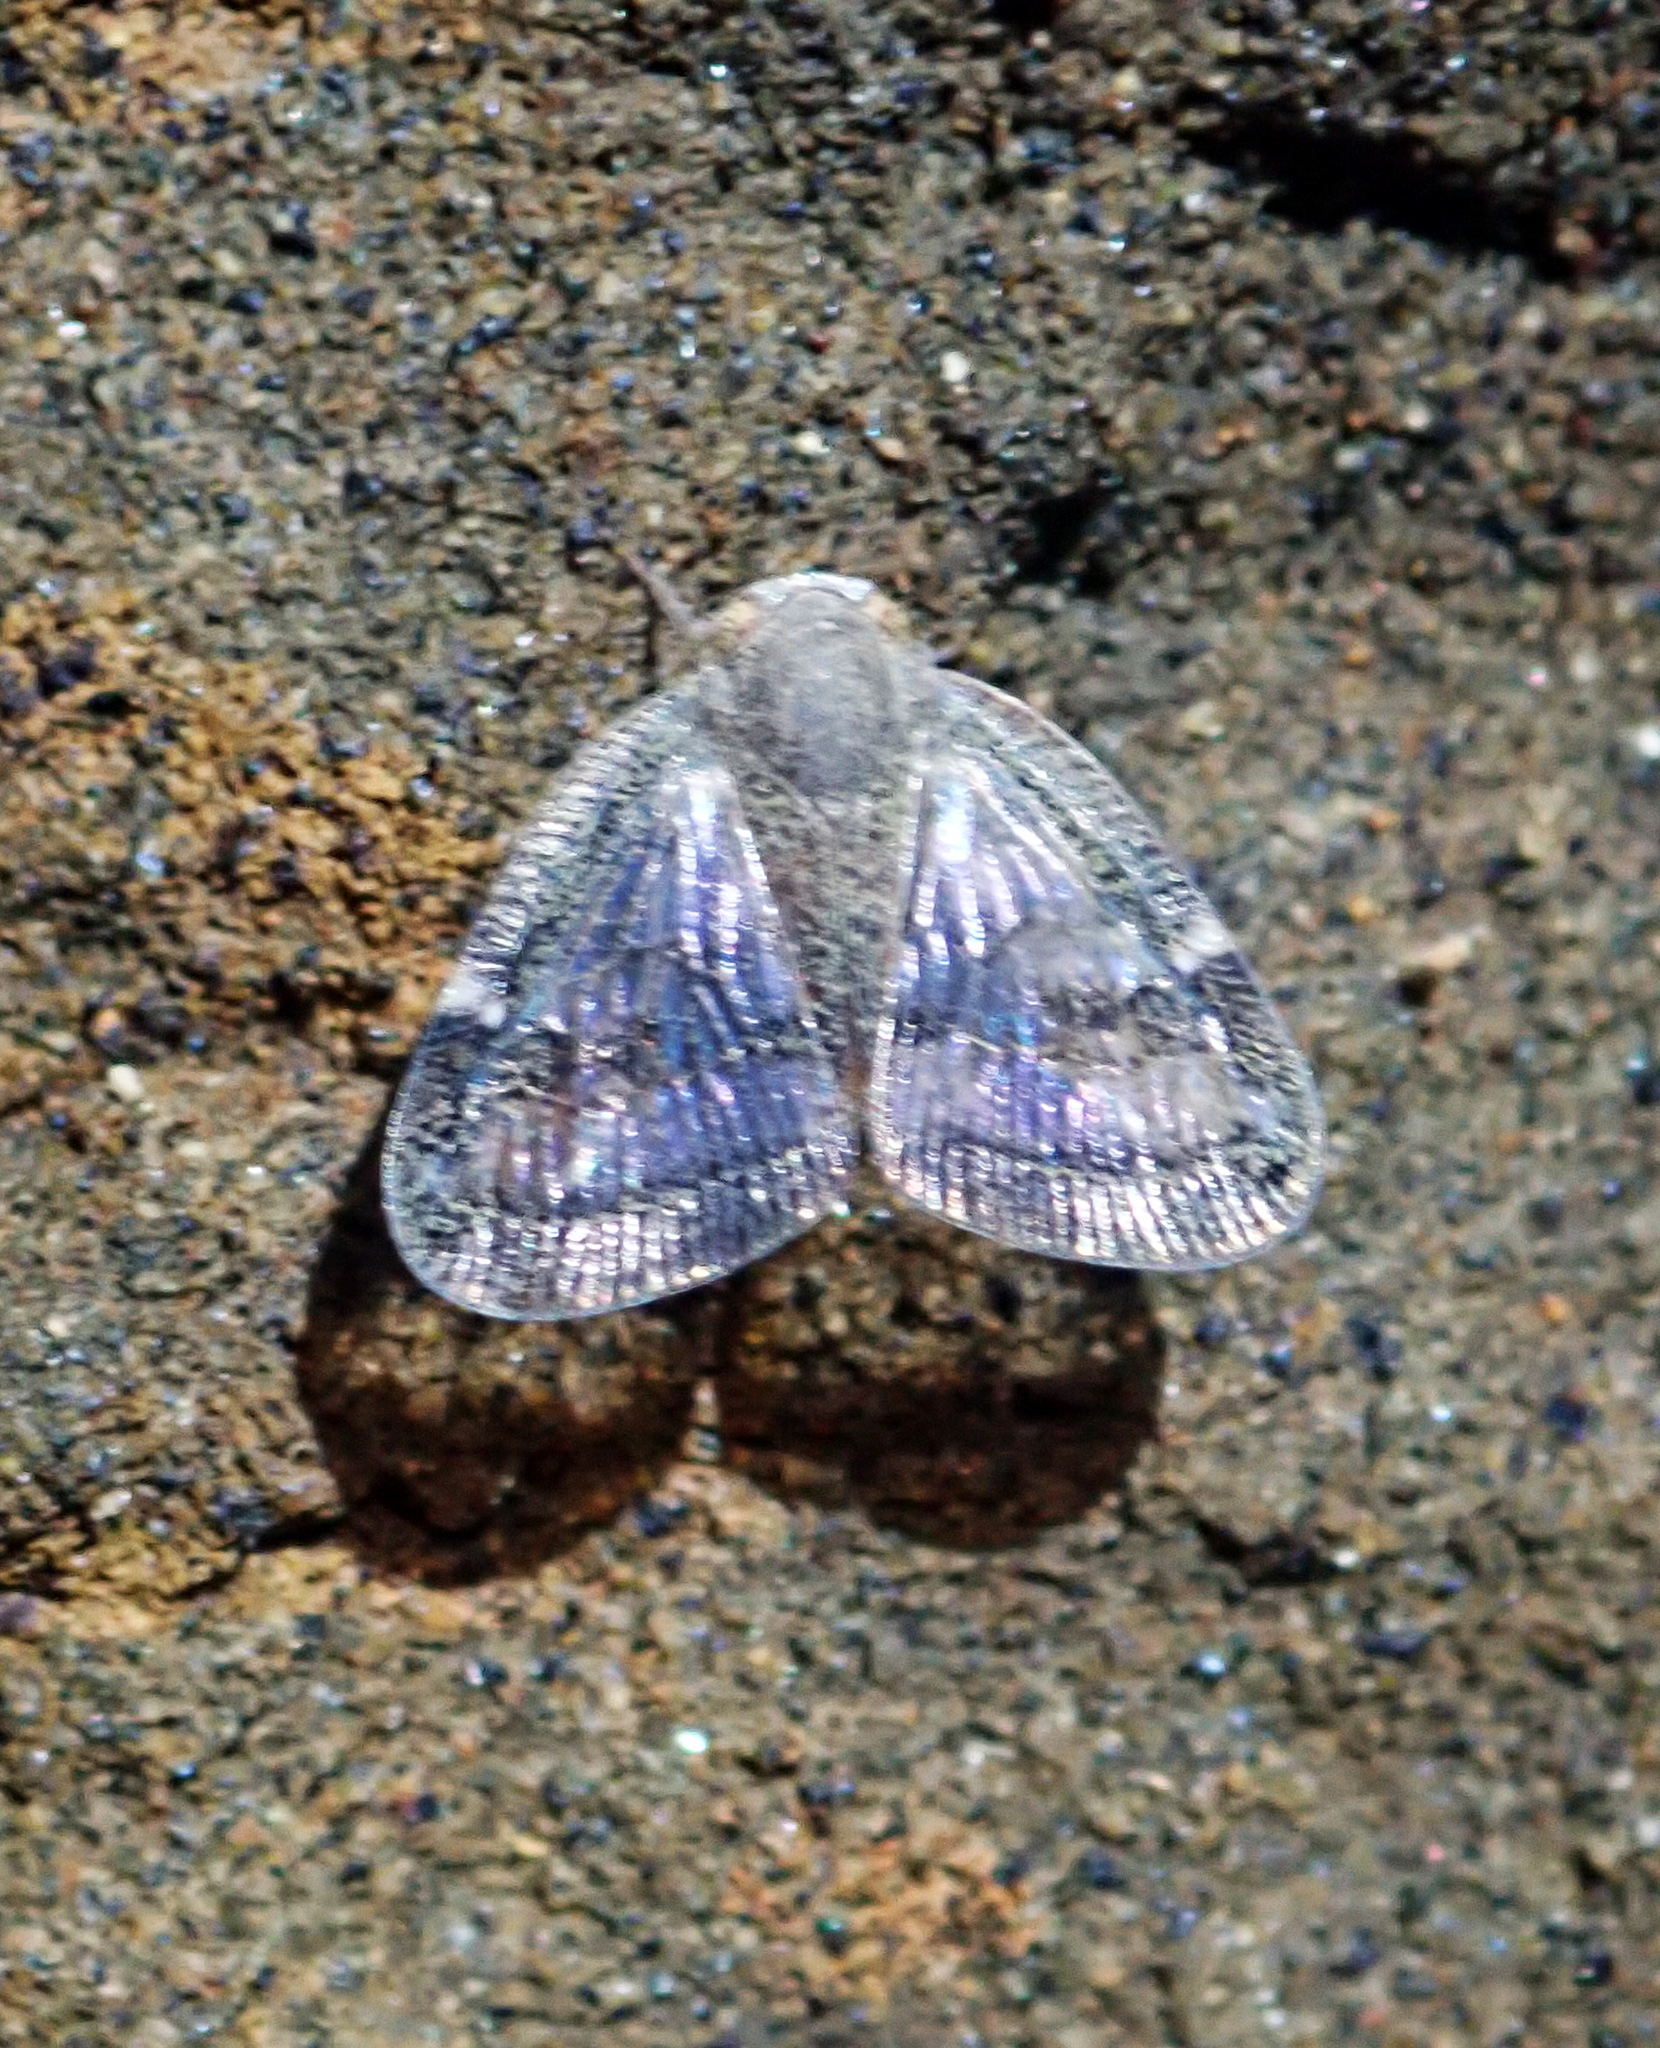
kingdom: Animalia
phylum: Arthropoda
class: Insecta
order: Hemiptera
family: Ricaniidae
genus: Scolypopa
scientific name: Scolypopa australis
